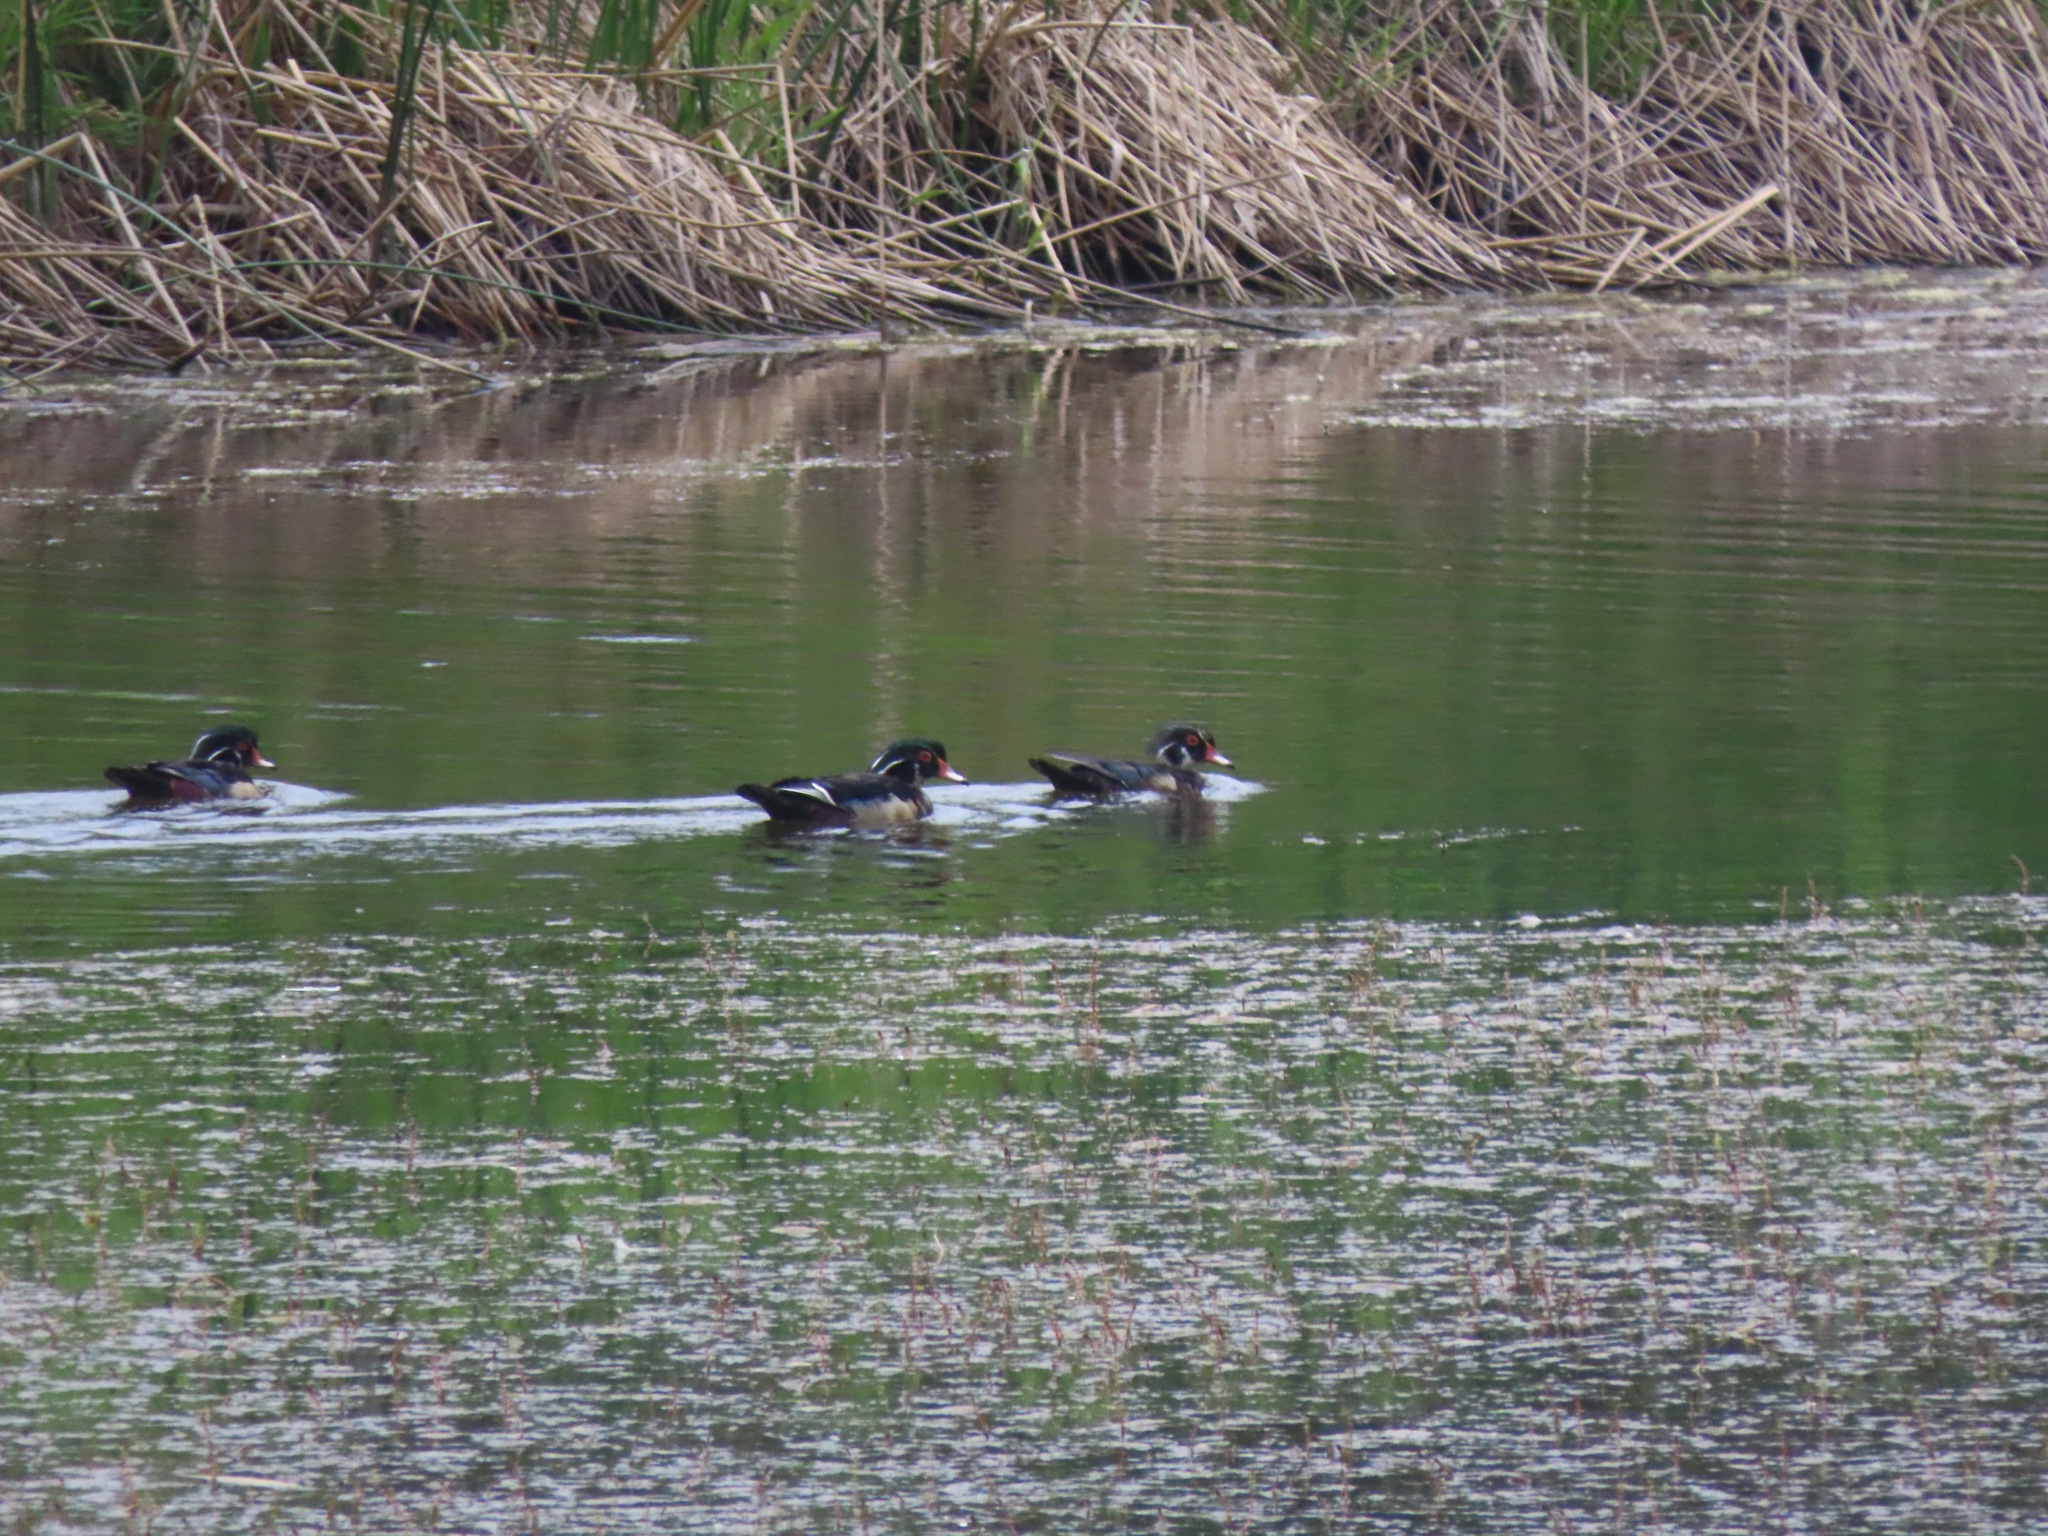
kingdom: Animalia
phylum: Chordata
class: Aves
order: Anseriformes
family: Anatidae
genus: Aix
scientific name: Aix sponsa
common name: Wood duck
